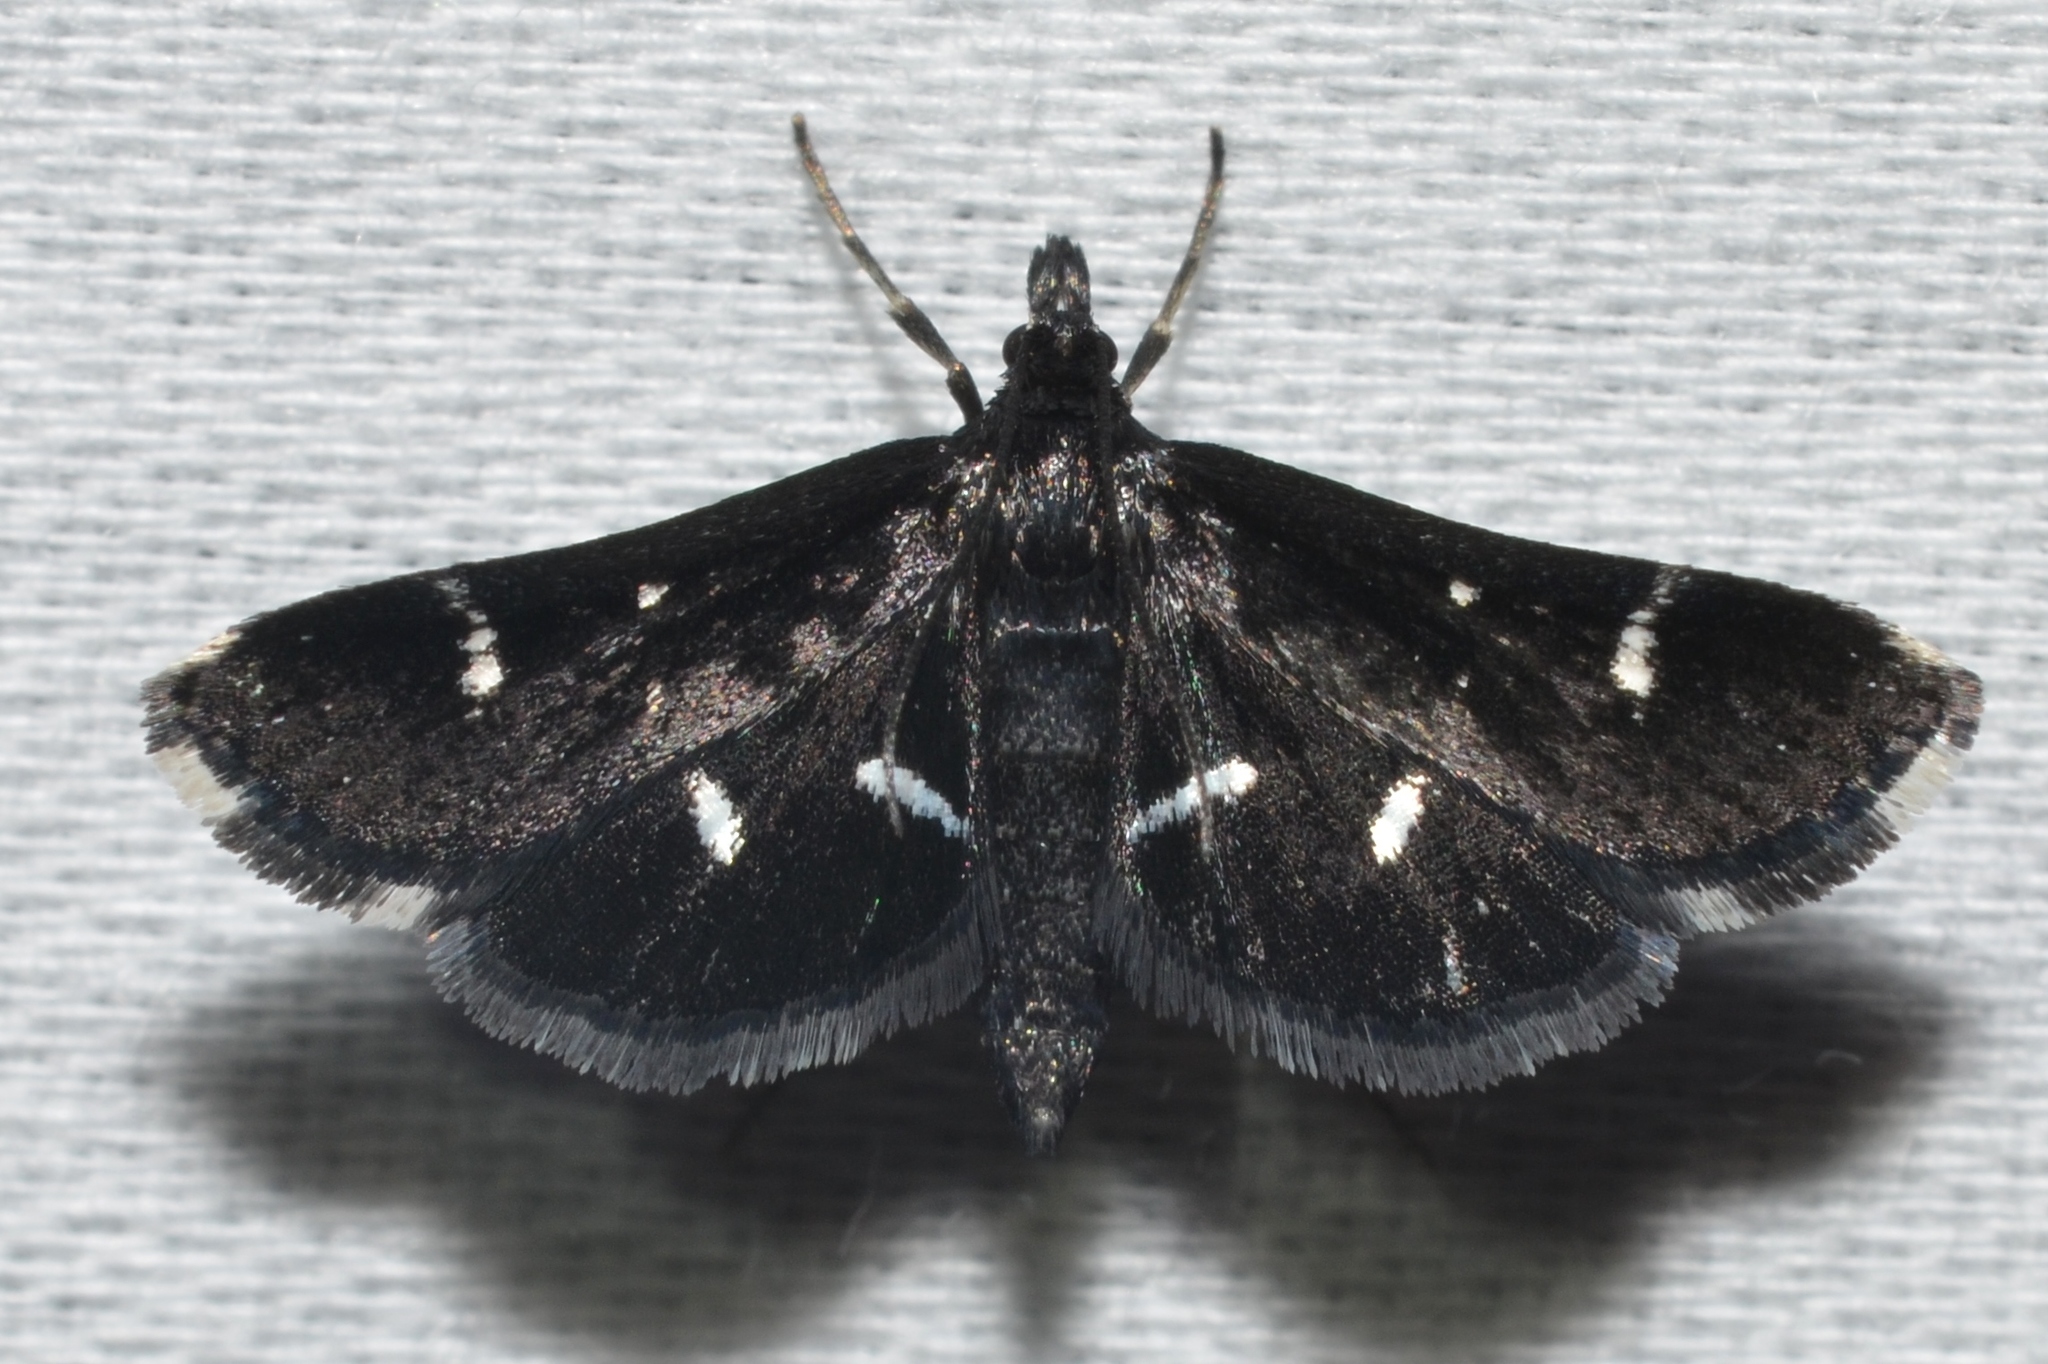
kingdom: Animalia
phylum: Arthropoda
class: Insecta
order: Lepidoptera
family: Crambidae
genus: Diasemiodes
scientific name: Diasemiodes nigralis
